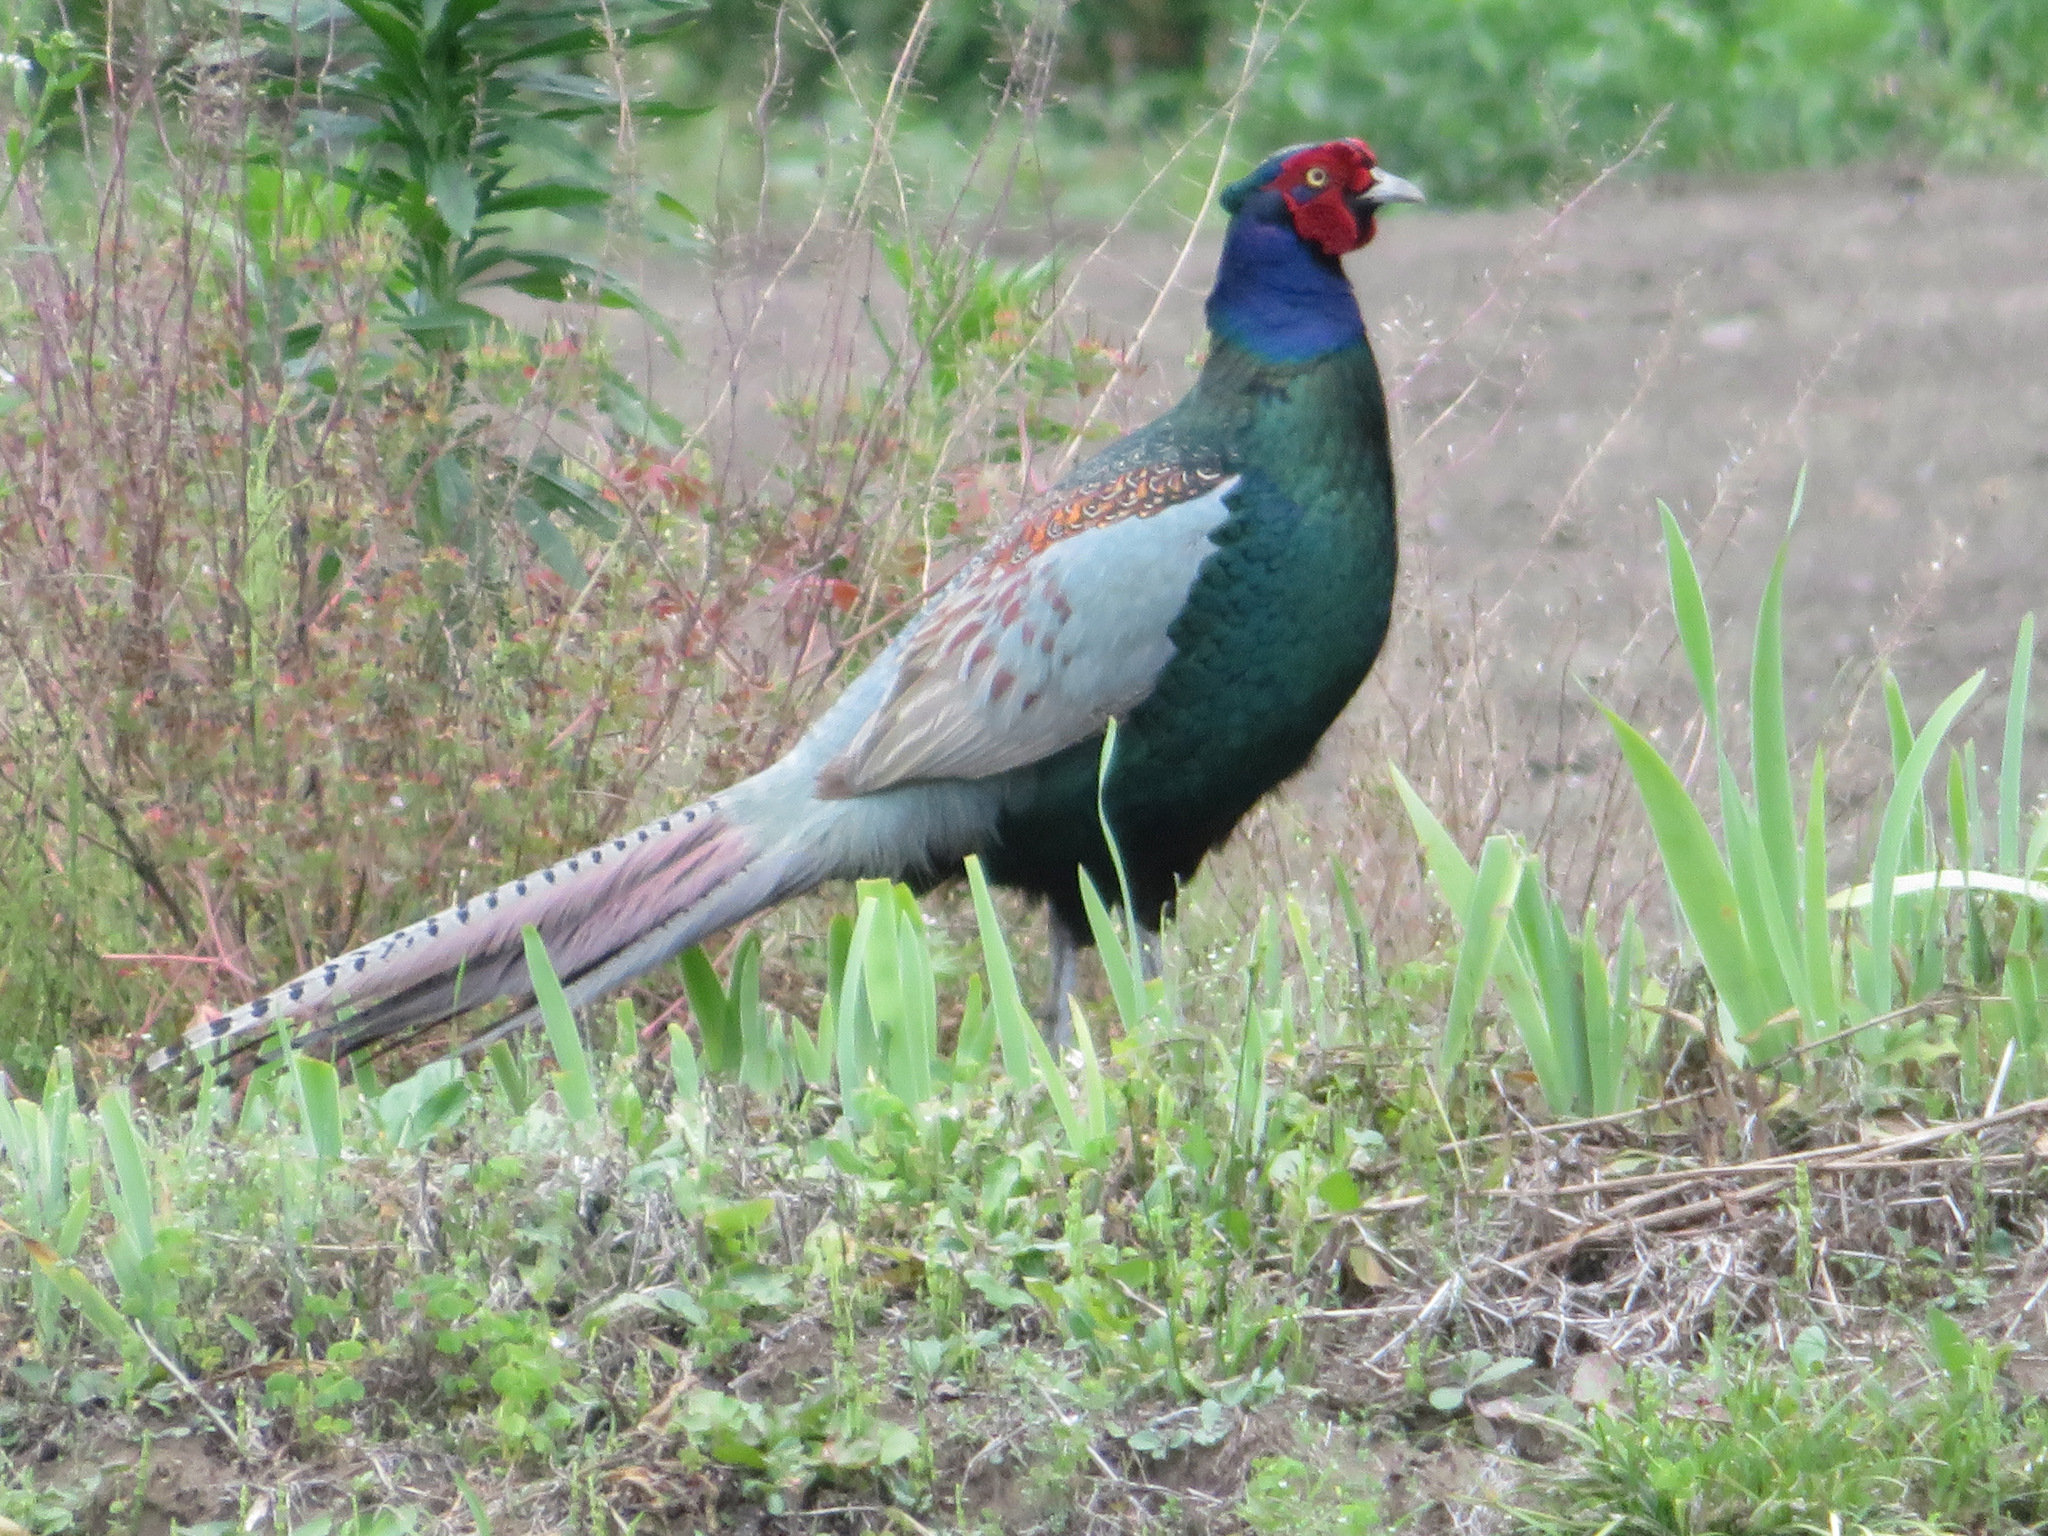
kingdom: Animalia
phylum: Chordata
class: Aves
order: Galliformes
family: Phasianidae
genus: Phasianus
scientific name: Phasianus versicolor
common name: Green pheasant
